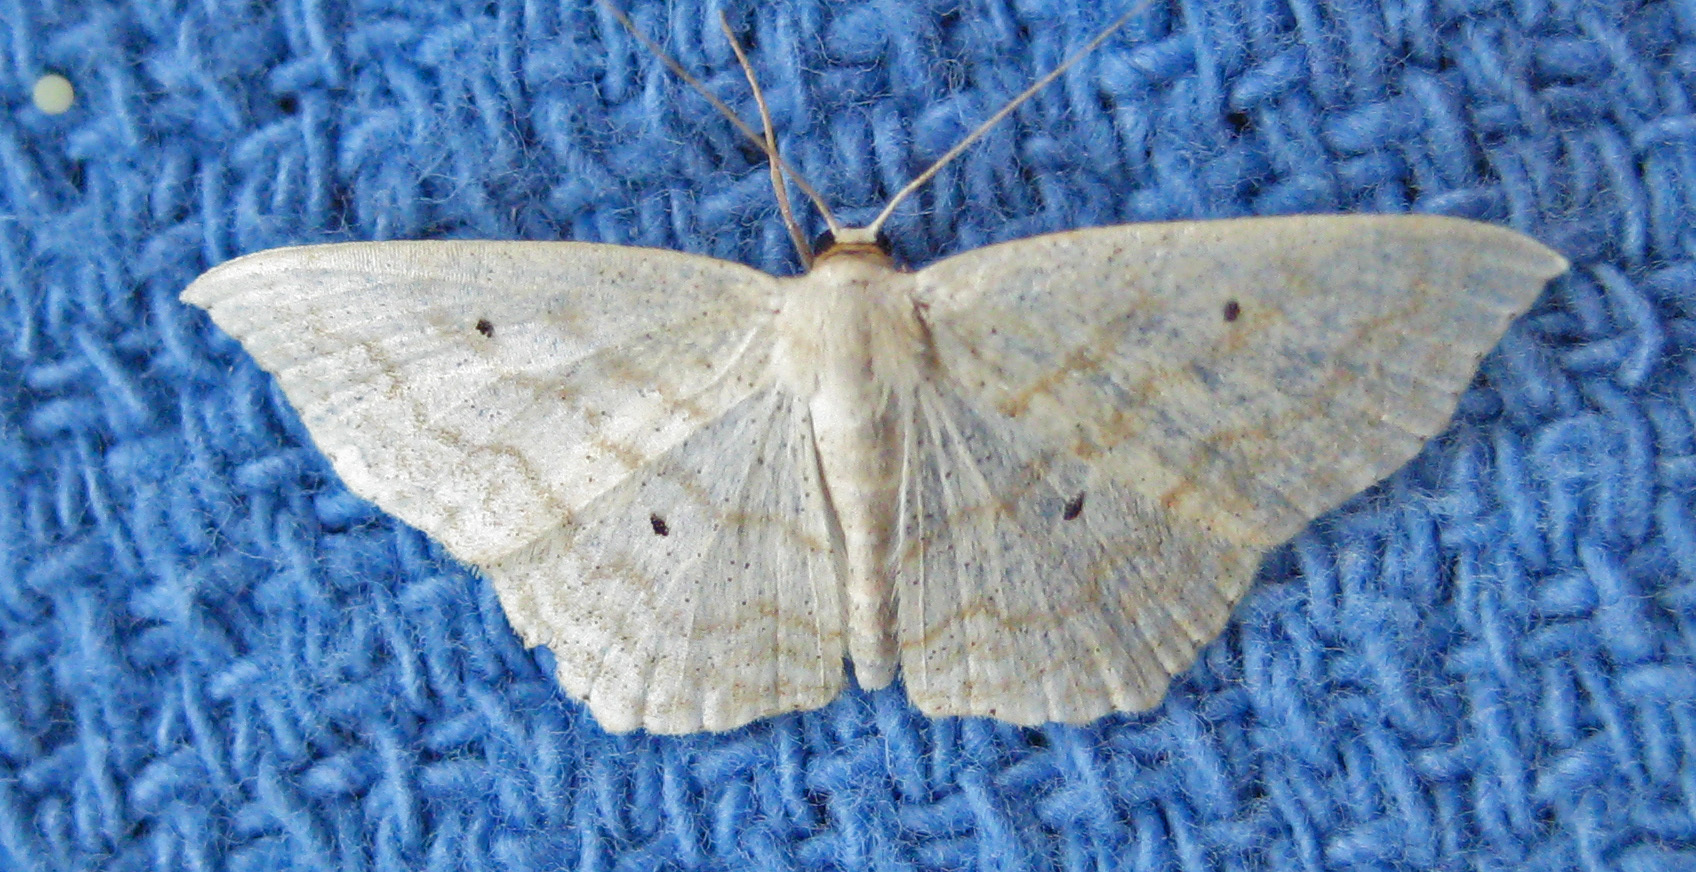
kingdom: Animalia
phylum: Arthropoda
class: Insecta
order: Lepidoptera
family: Geometridae
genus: Scopula
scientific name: Scopula limboundata
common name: Large lace border
